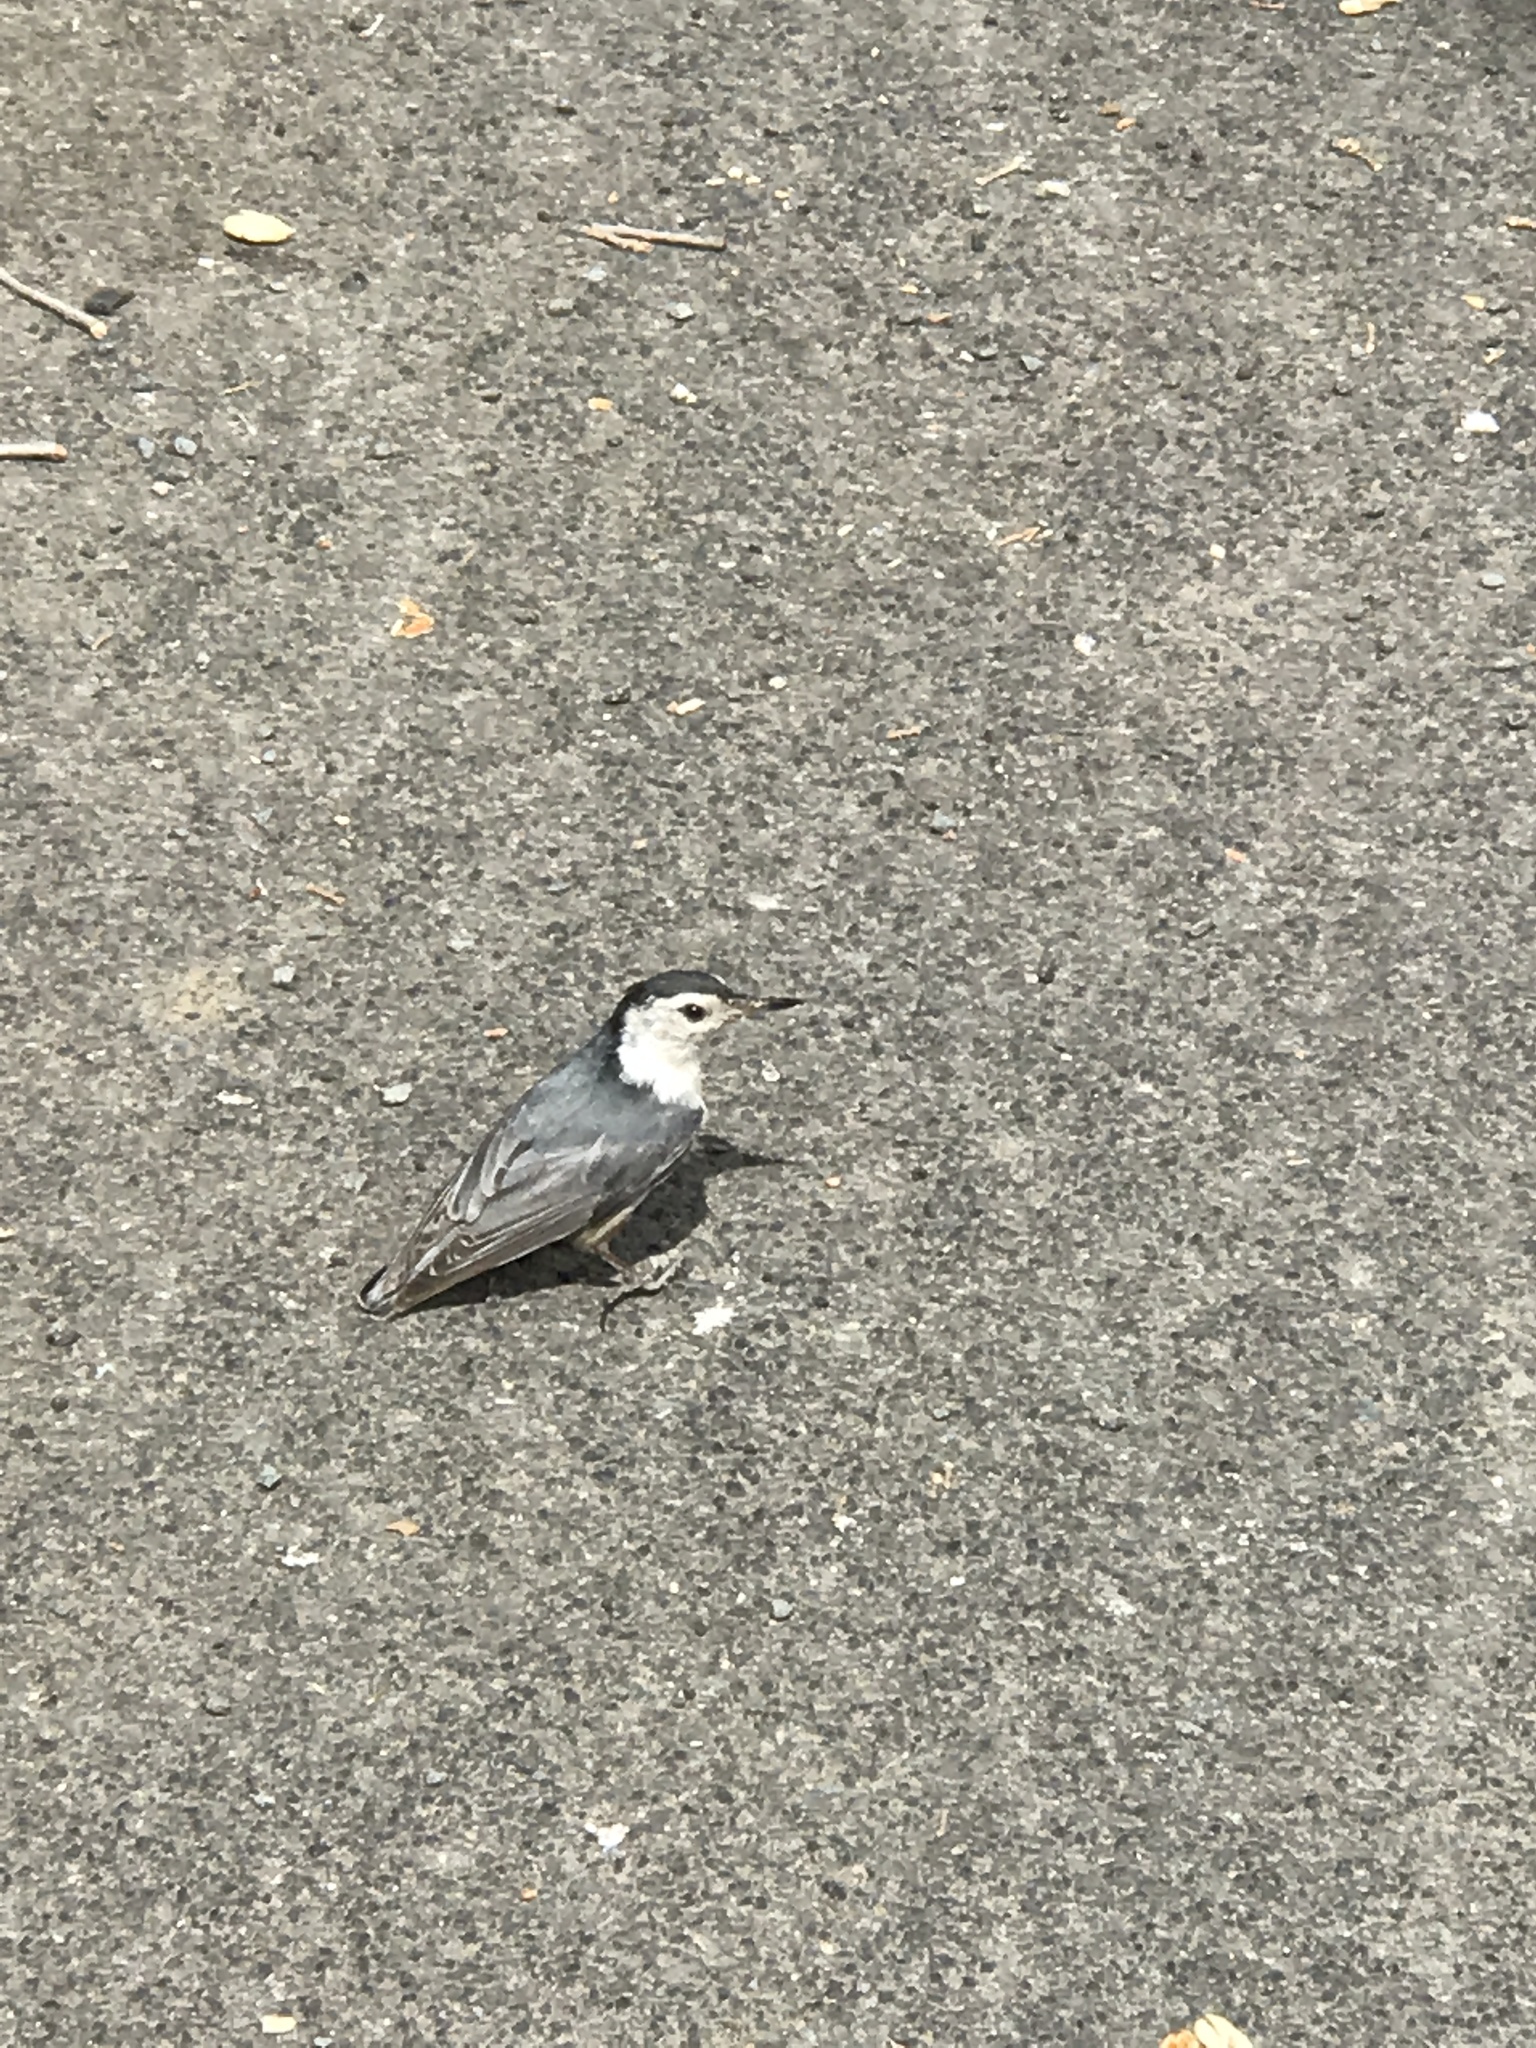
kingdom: Animalia
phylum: Chordata
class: Aves
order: Passeriformes
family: Sittidae
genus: Sitta
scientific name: Sitta carolinensis
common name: White-breasted nuthatch
